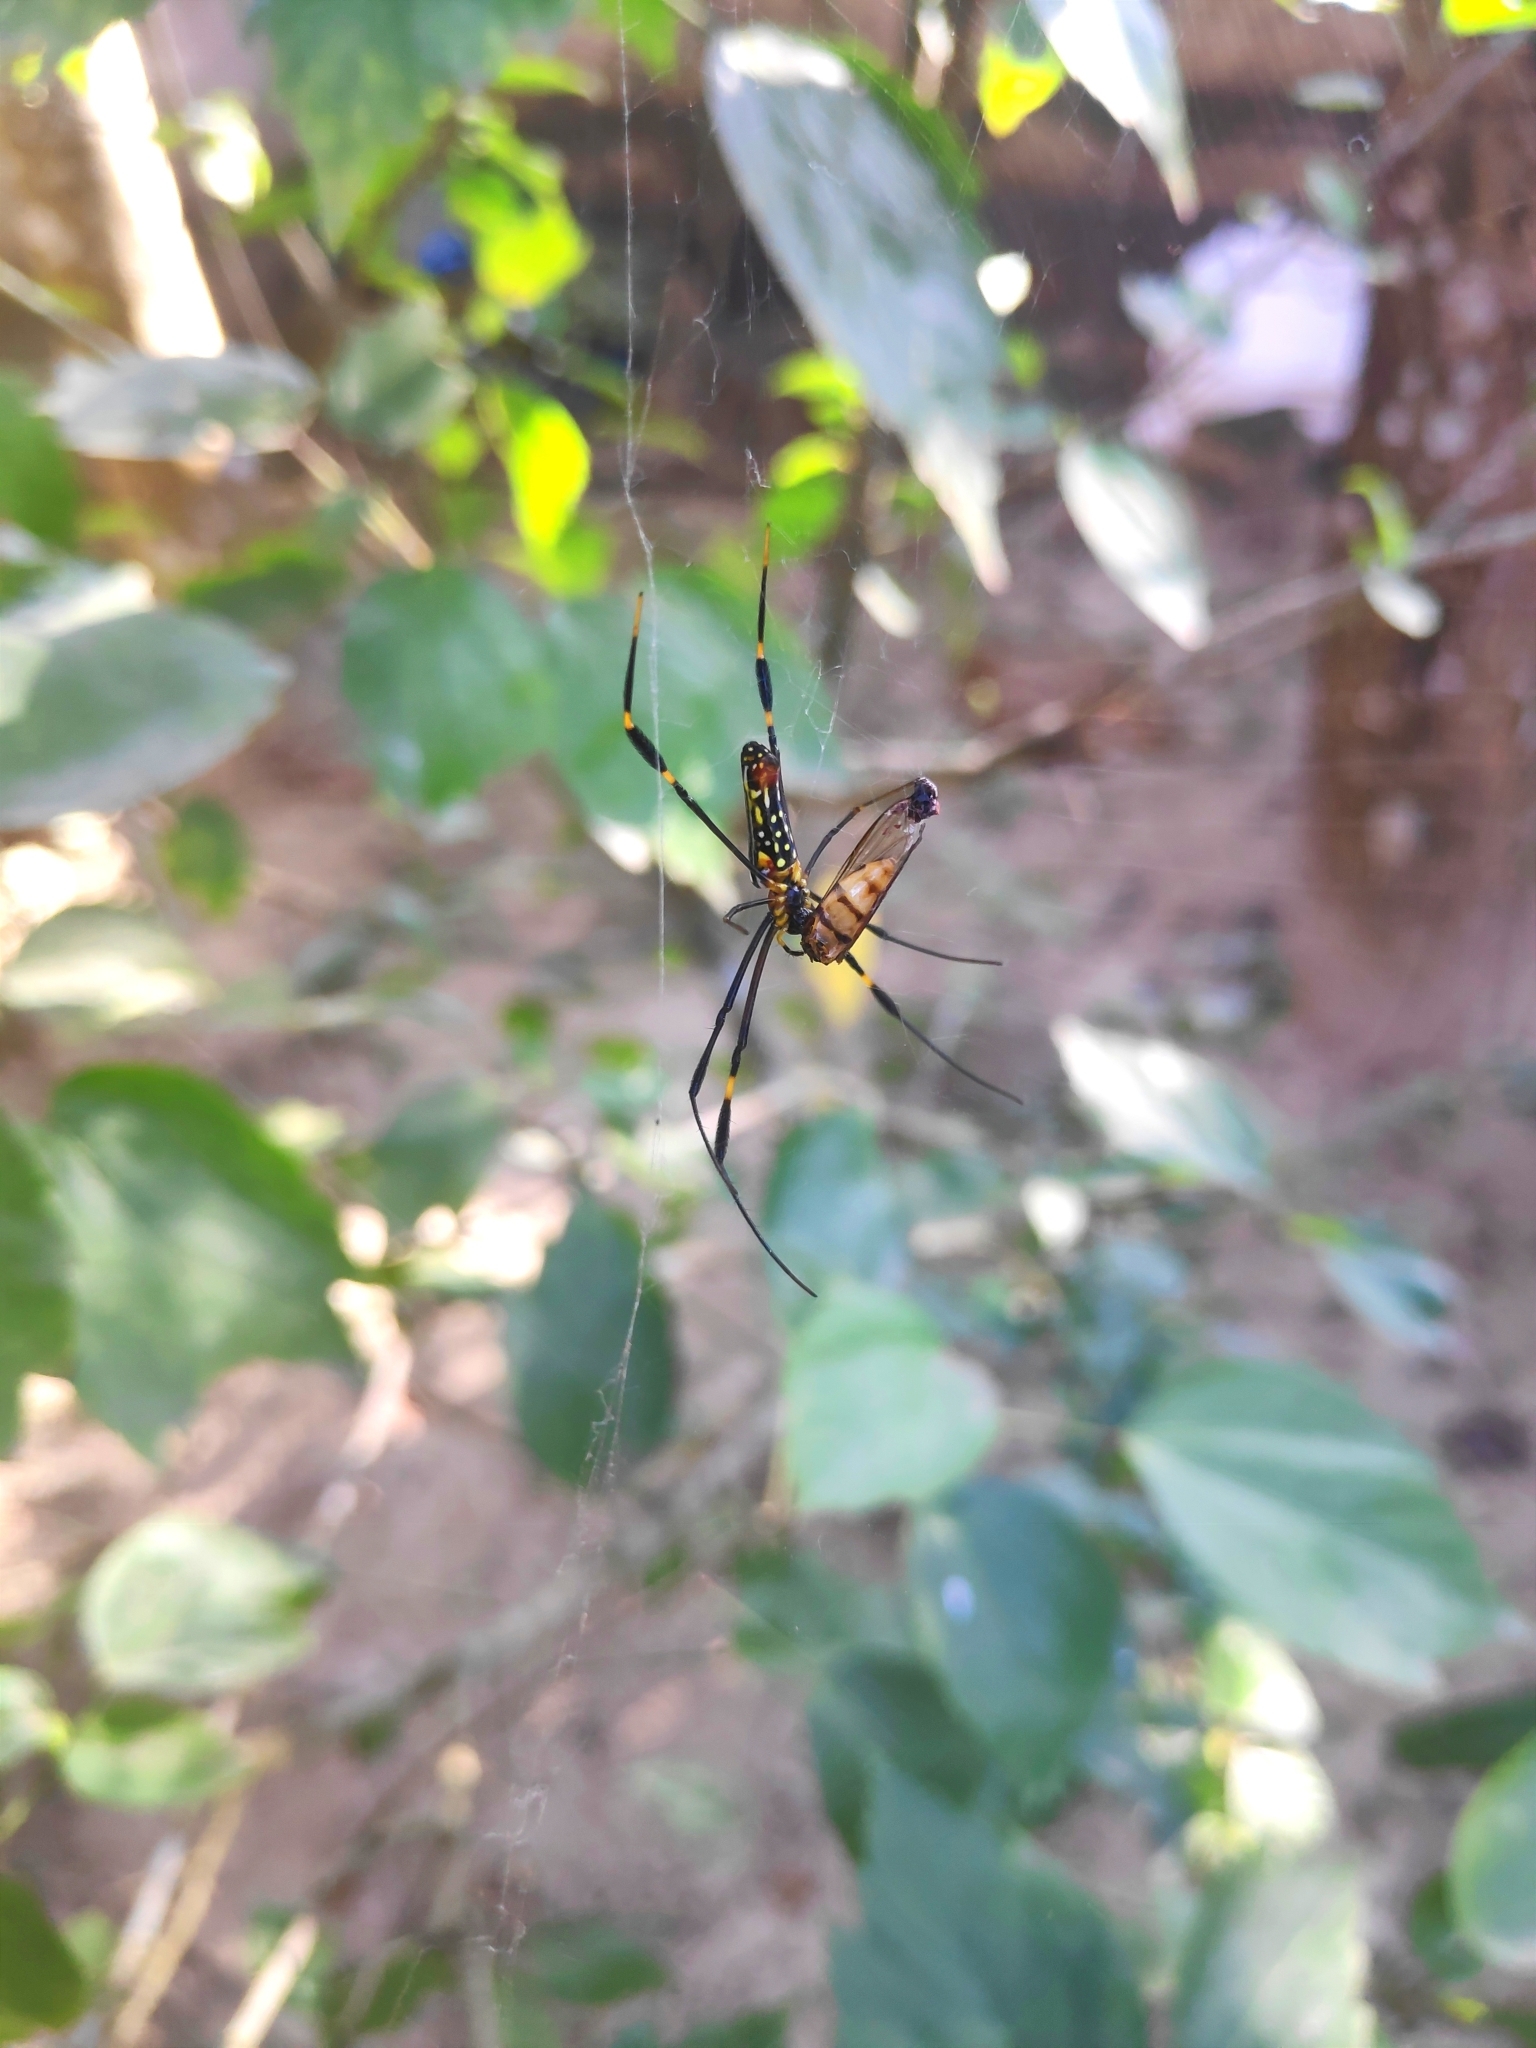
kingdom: Animalia
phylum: Arthropoda
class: Arachnida
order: Araneae
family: Araneidae
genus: Nephila
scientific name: Nephila pilipes
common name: Giant golden orb weaver
